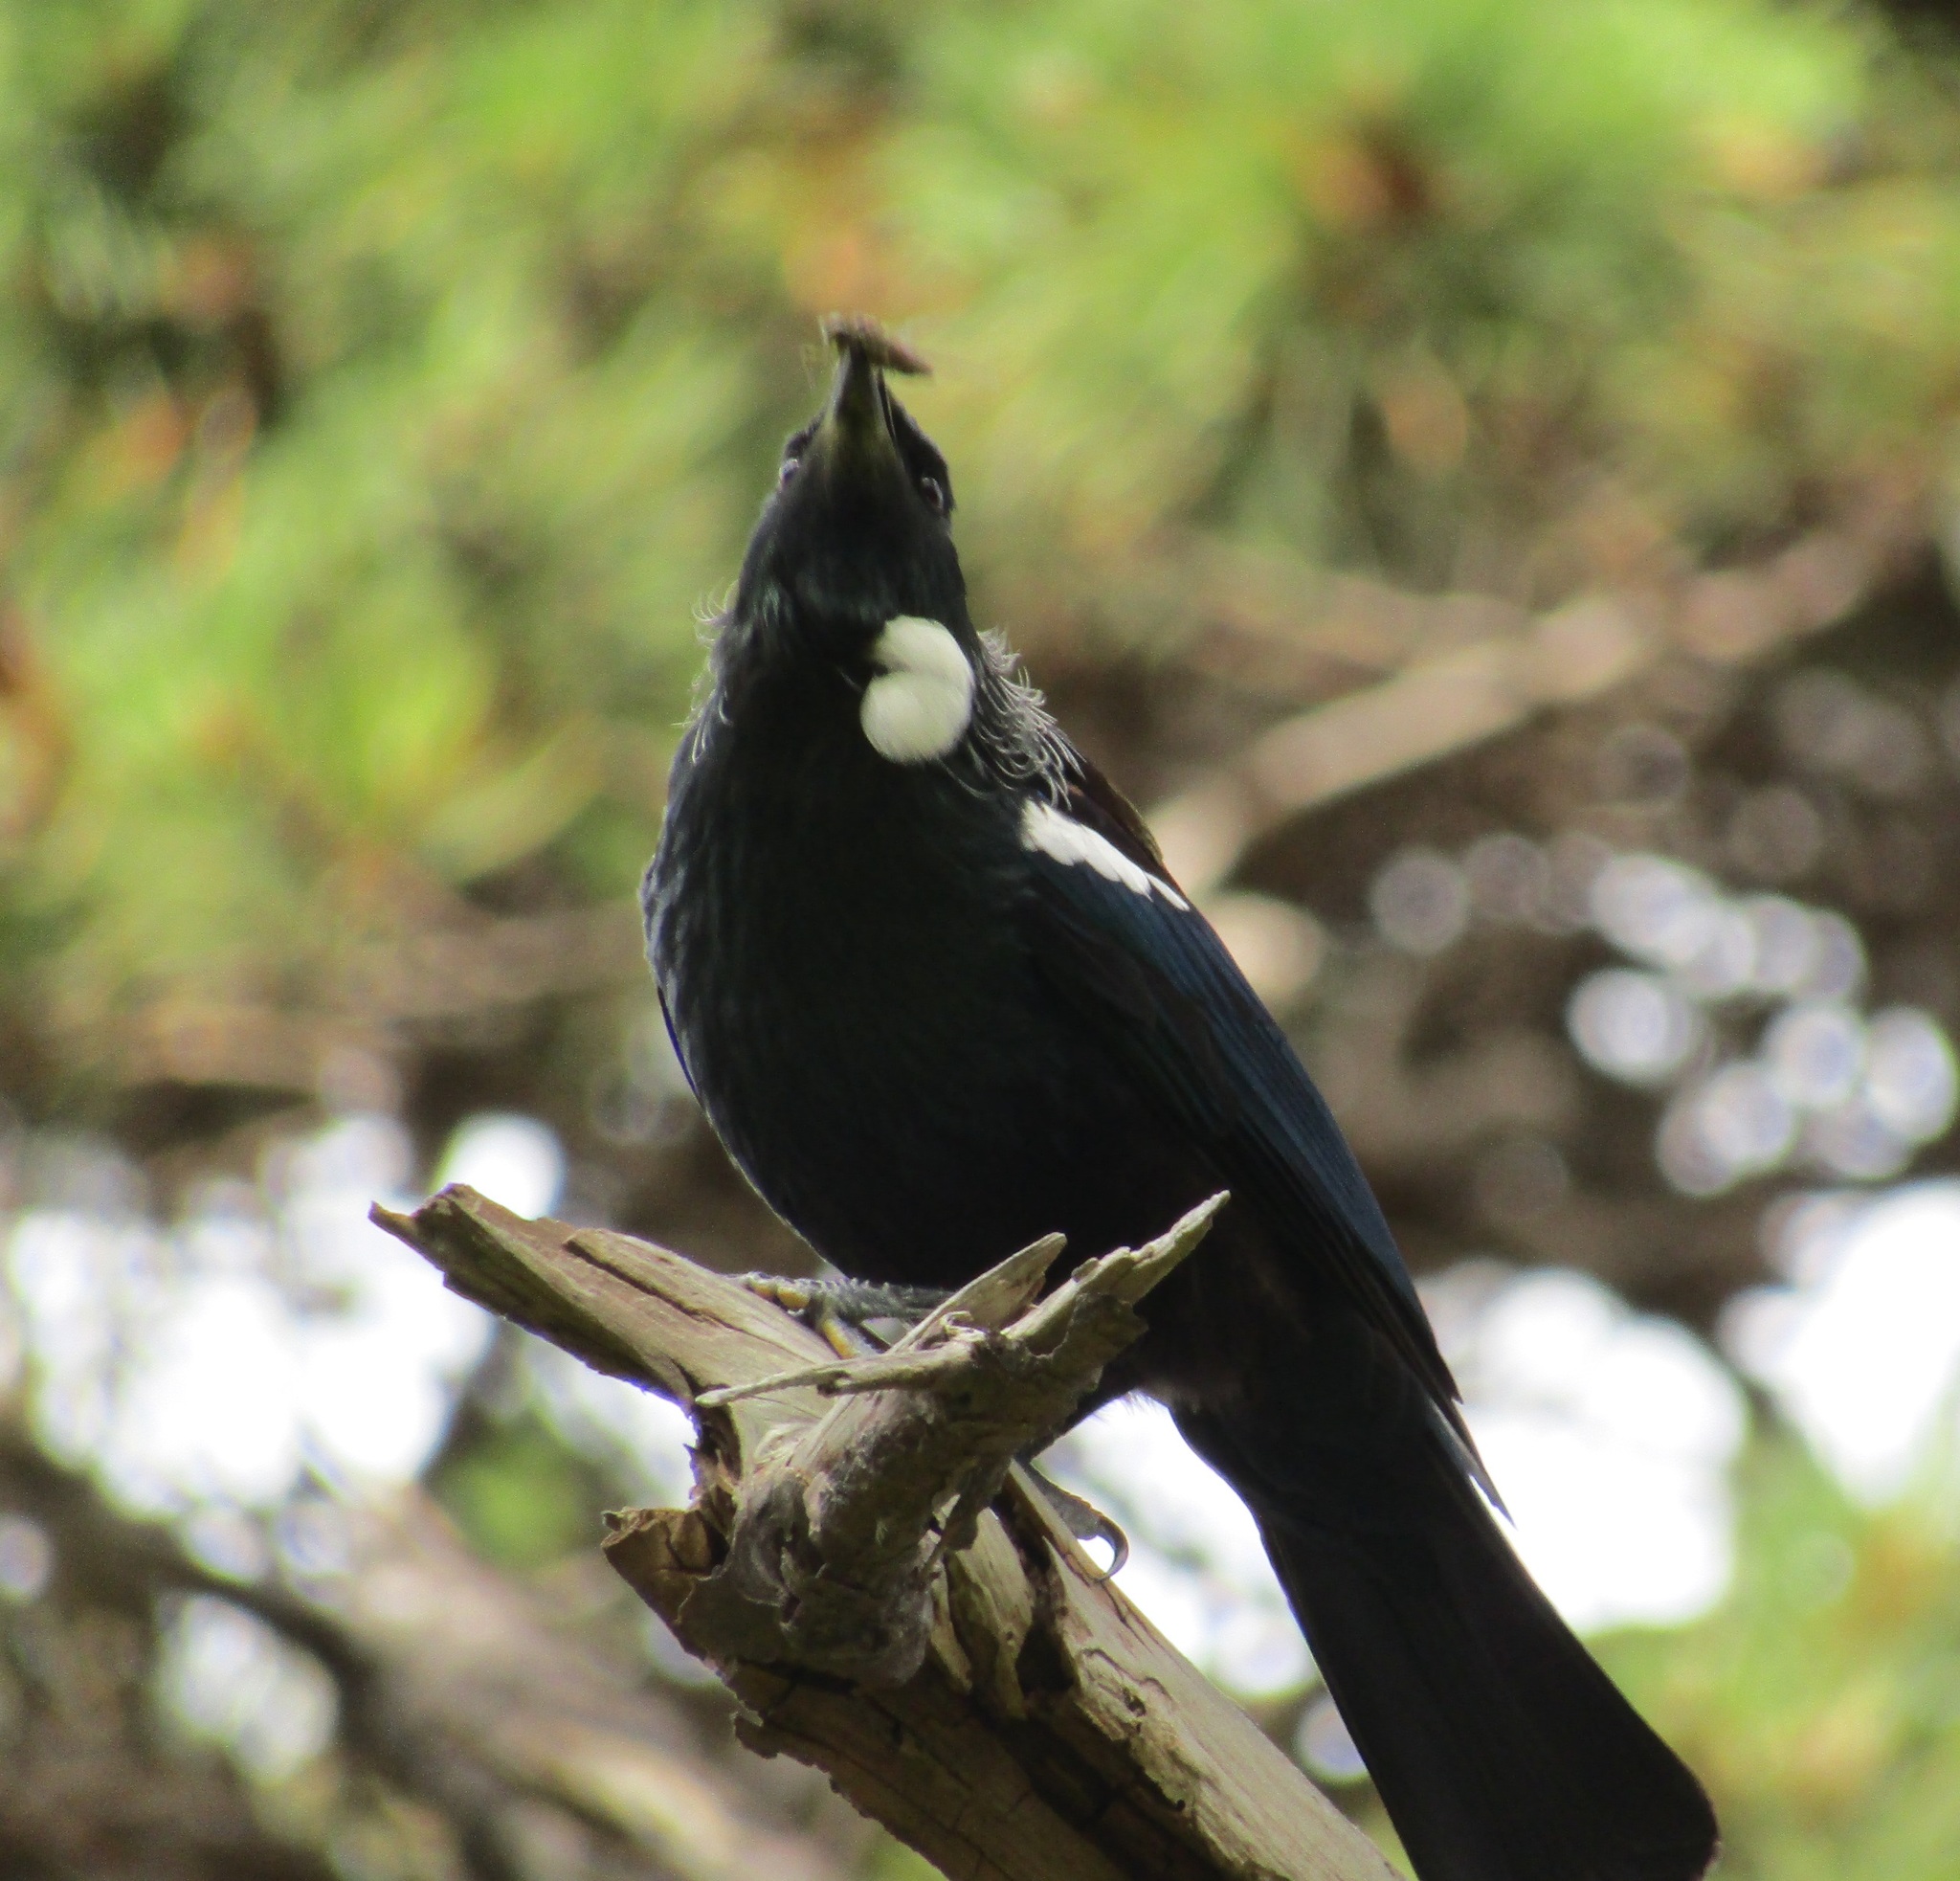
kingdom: Animalia
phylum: Chordata
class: Aves
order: Passeriformes
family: Meliphagidae
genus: Prosthemadera
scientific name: Prosthemadera novaeseelandiae
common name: Tui
